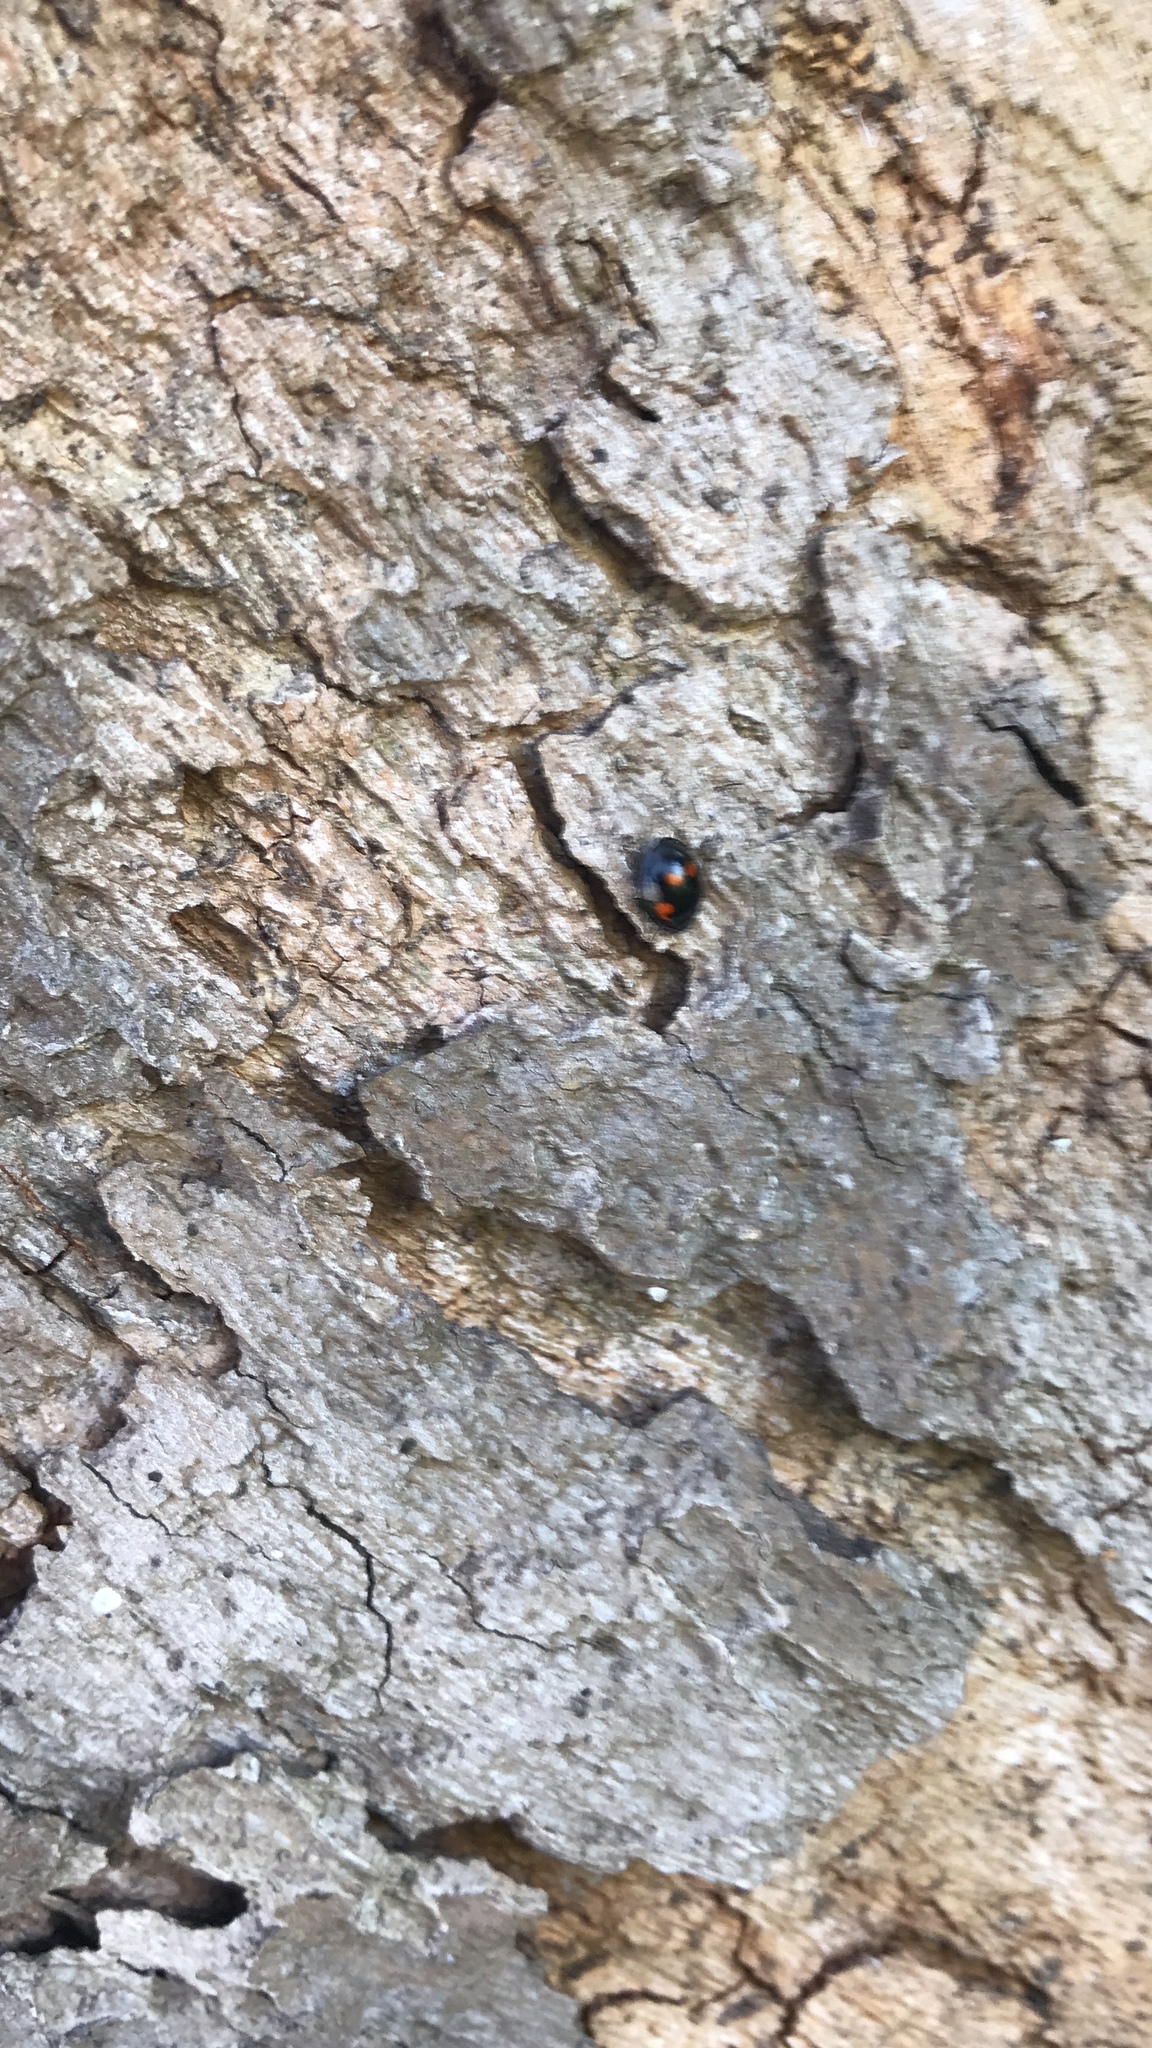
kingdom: Animalia
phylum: Arthropoda
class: Insecta
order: Coleoptera
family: Coccinellidae
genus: Brumus
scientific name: Brumus quadripustulatus
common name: Ladybird beetle
